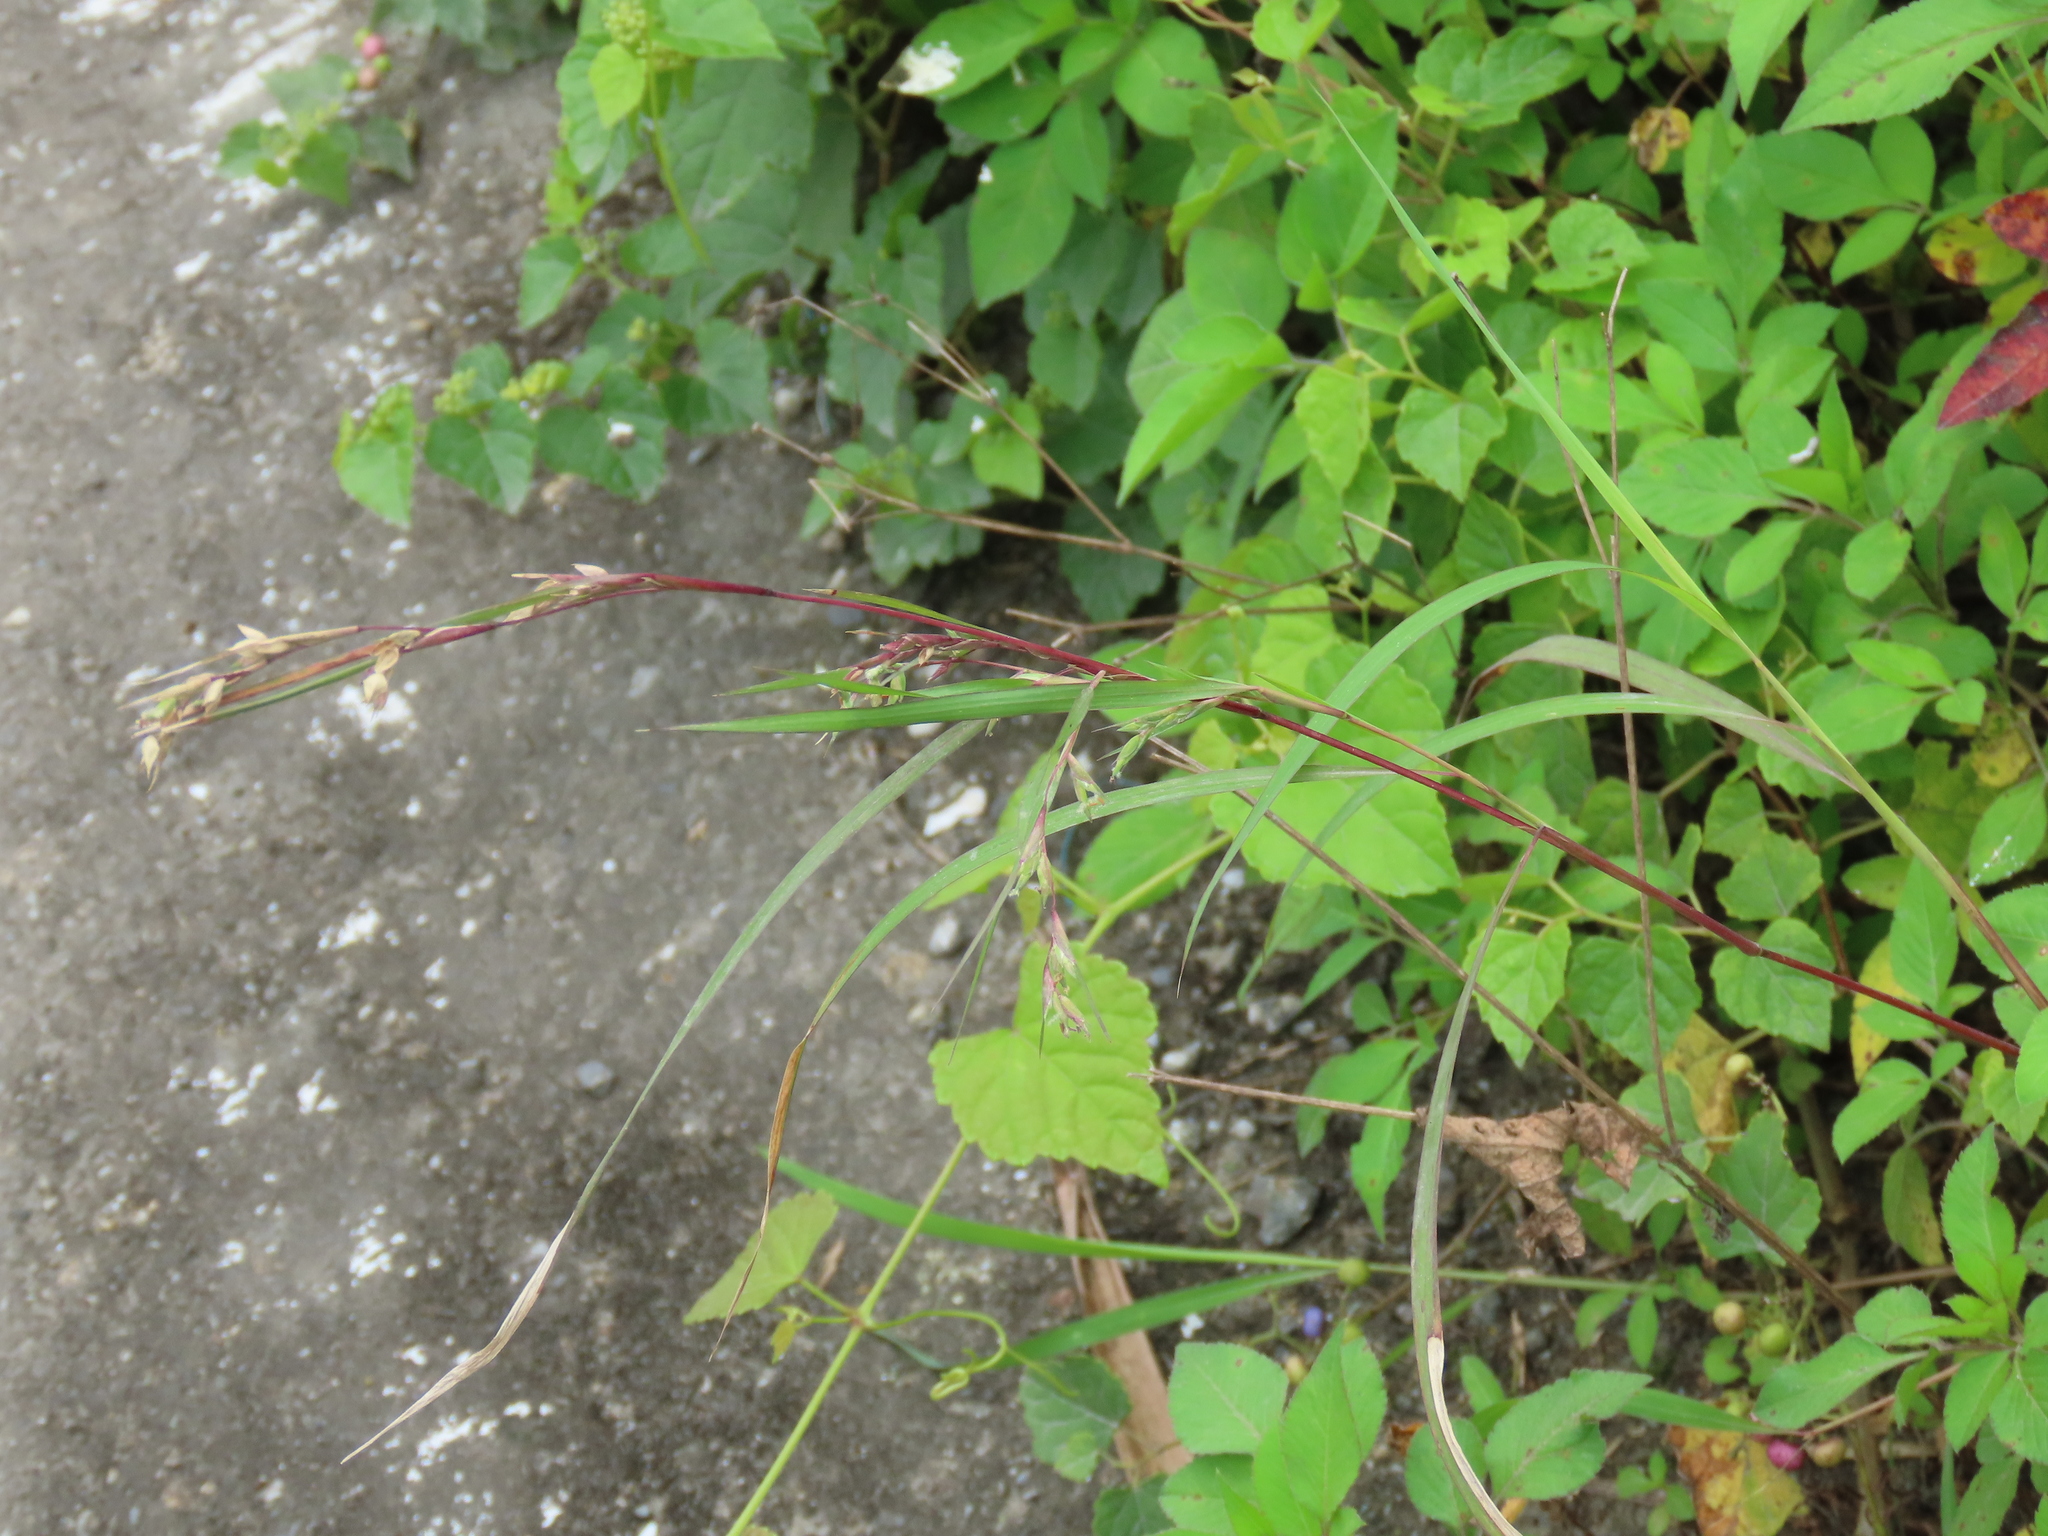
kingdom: Plantae
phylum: Tracheophyta
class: Liliopsida
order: Poales
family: Poaceae
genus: Apluda
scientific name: Apluda mutica
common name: Mauritian grass
